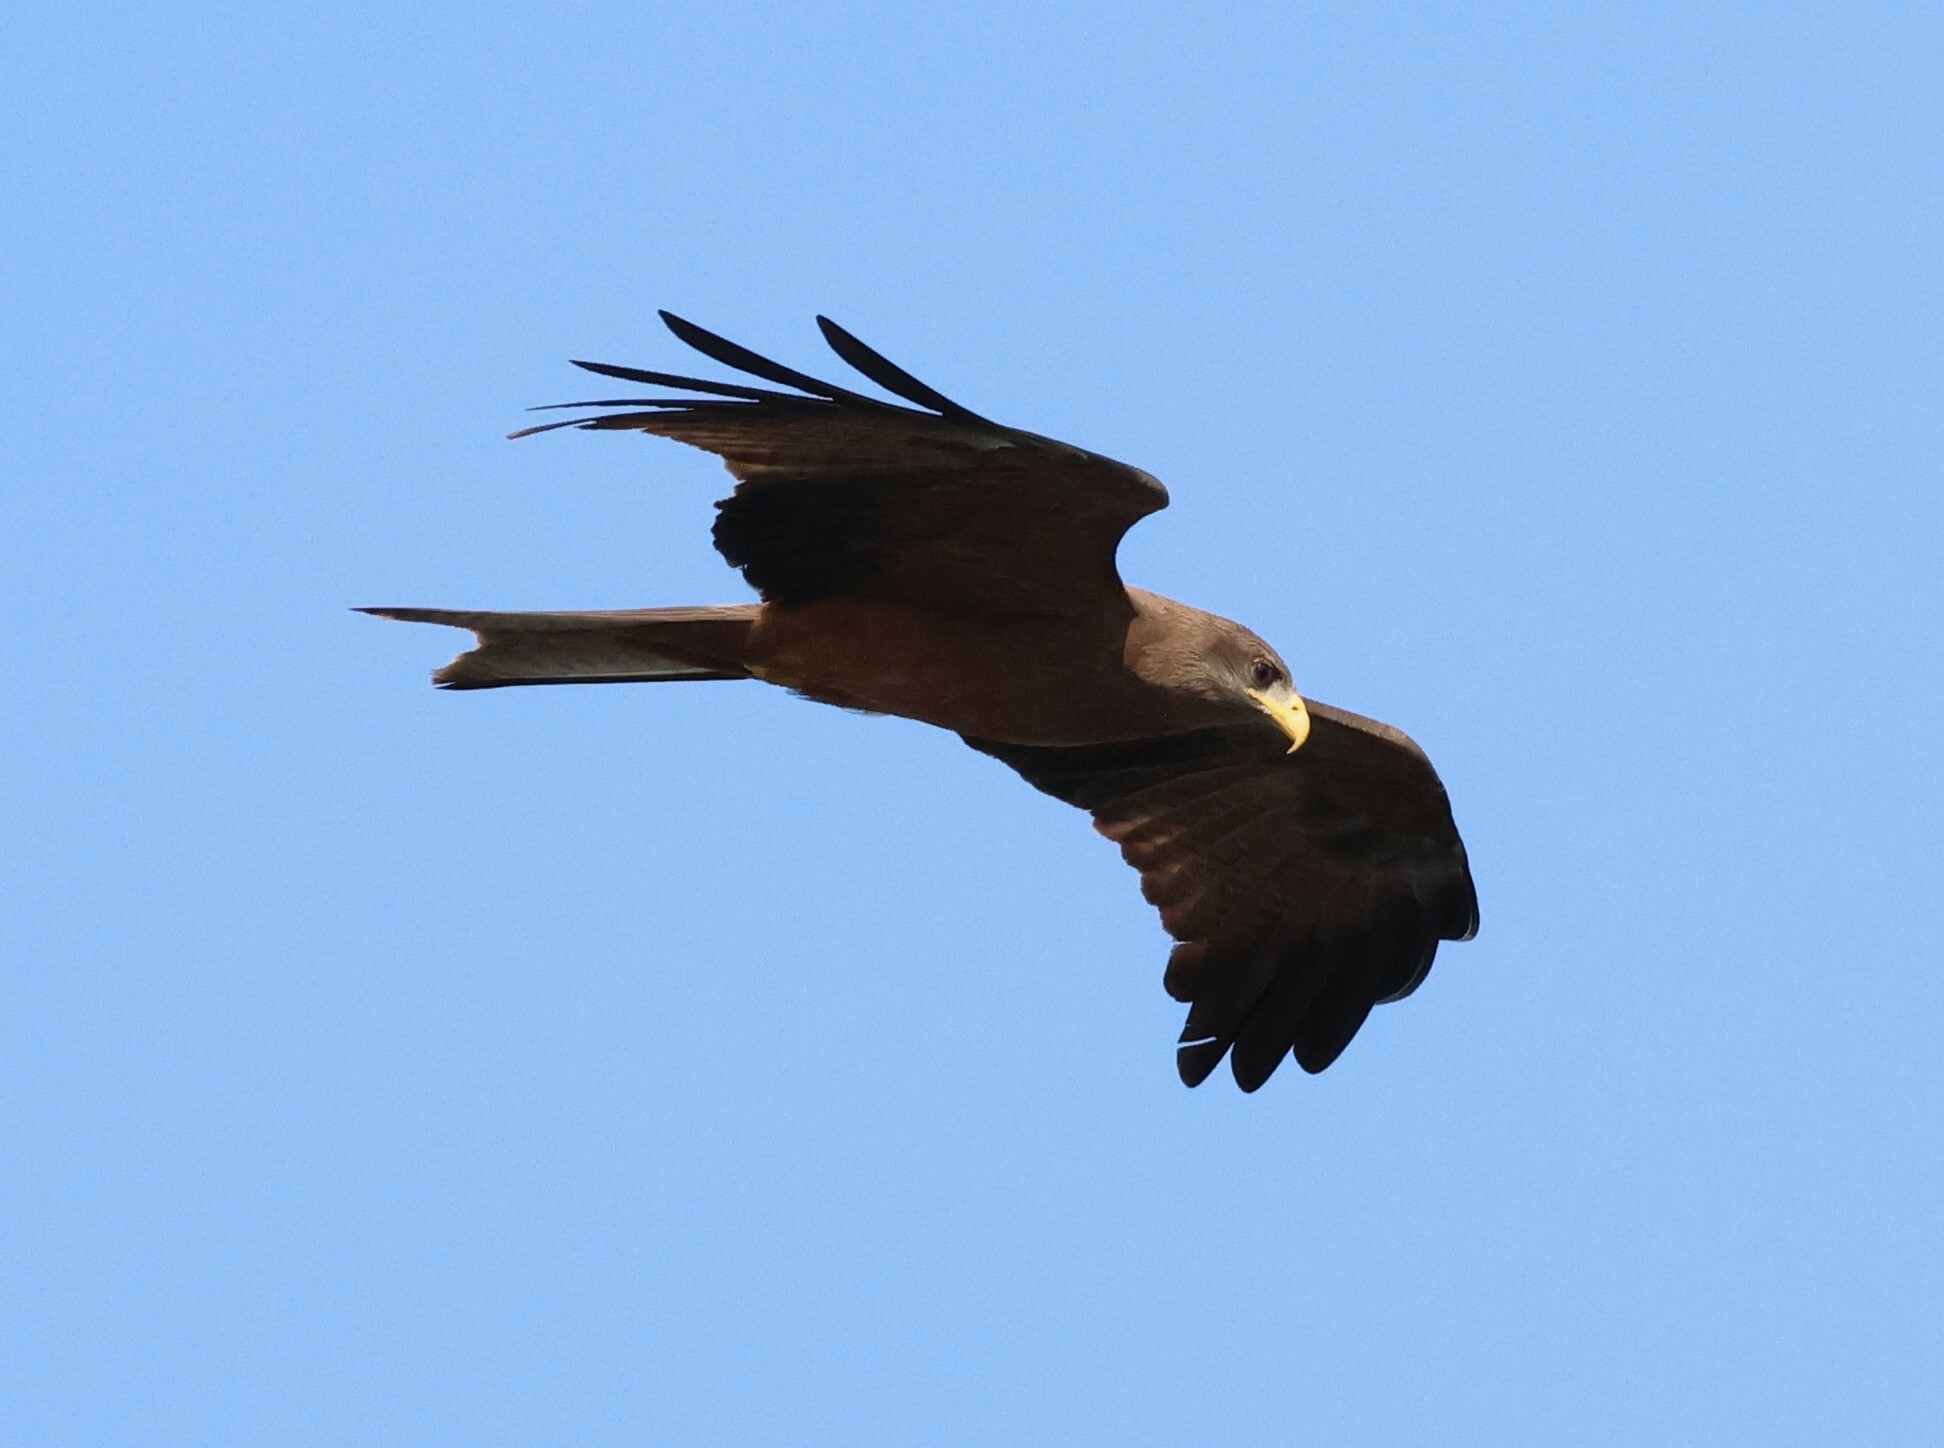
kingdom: Animalia
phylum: Chordata
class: Aves
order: Accipitriformes
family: Accipitridae
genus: Milvus
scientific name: Milvus migrans
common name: Black kite
